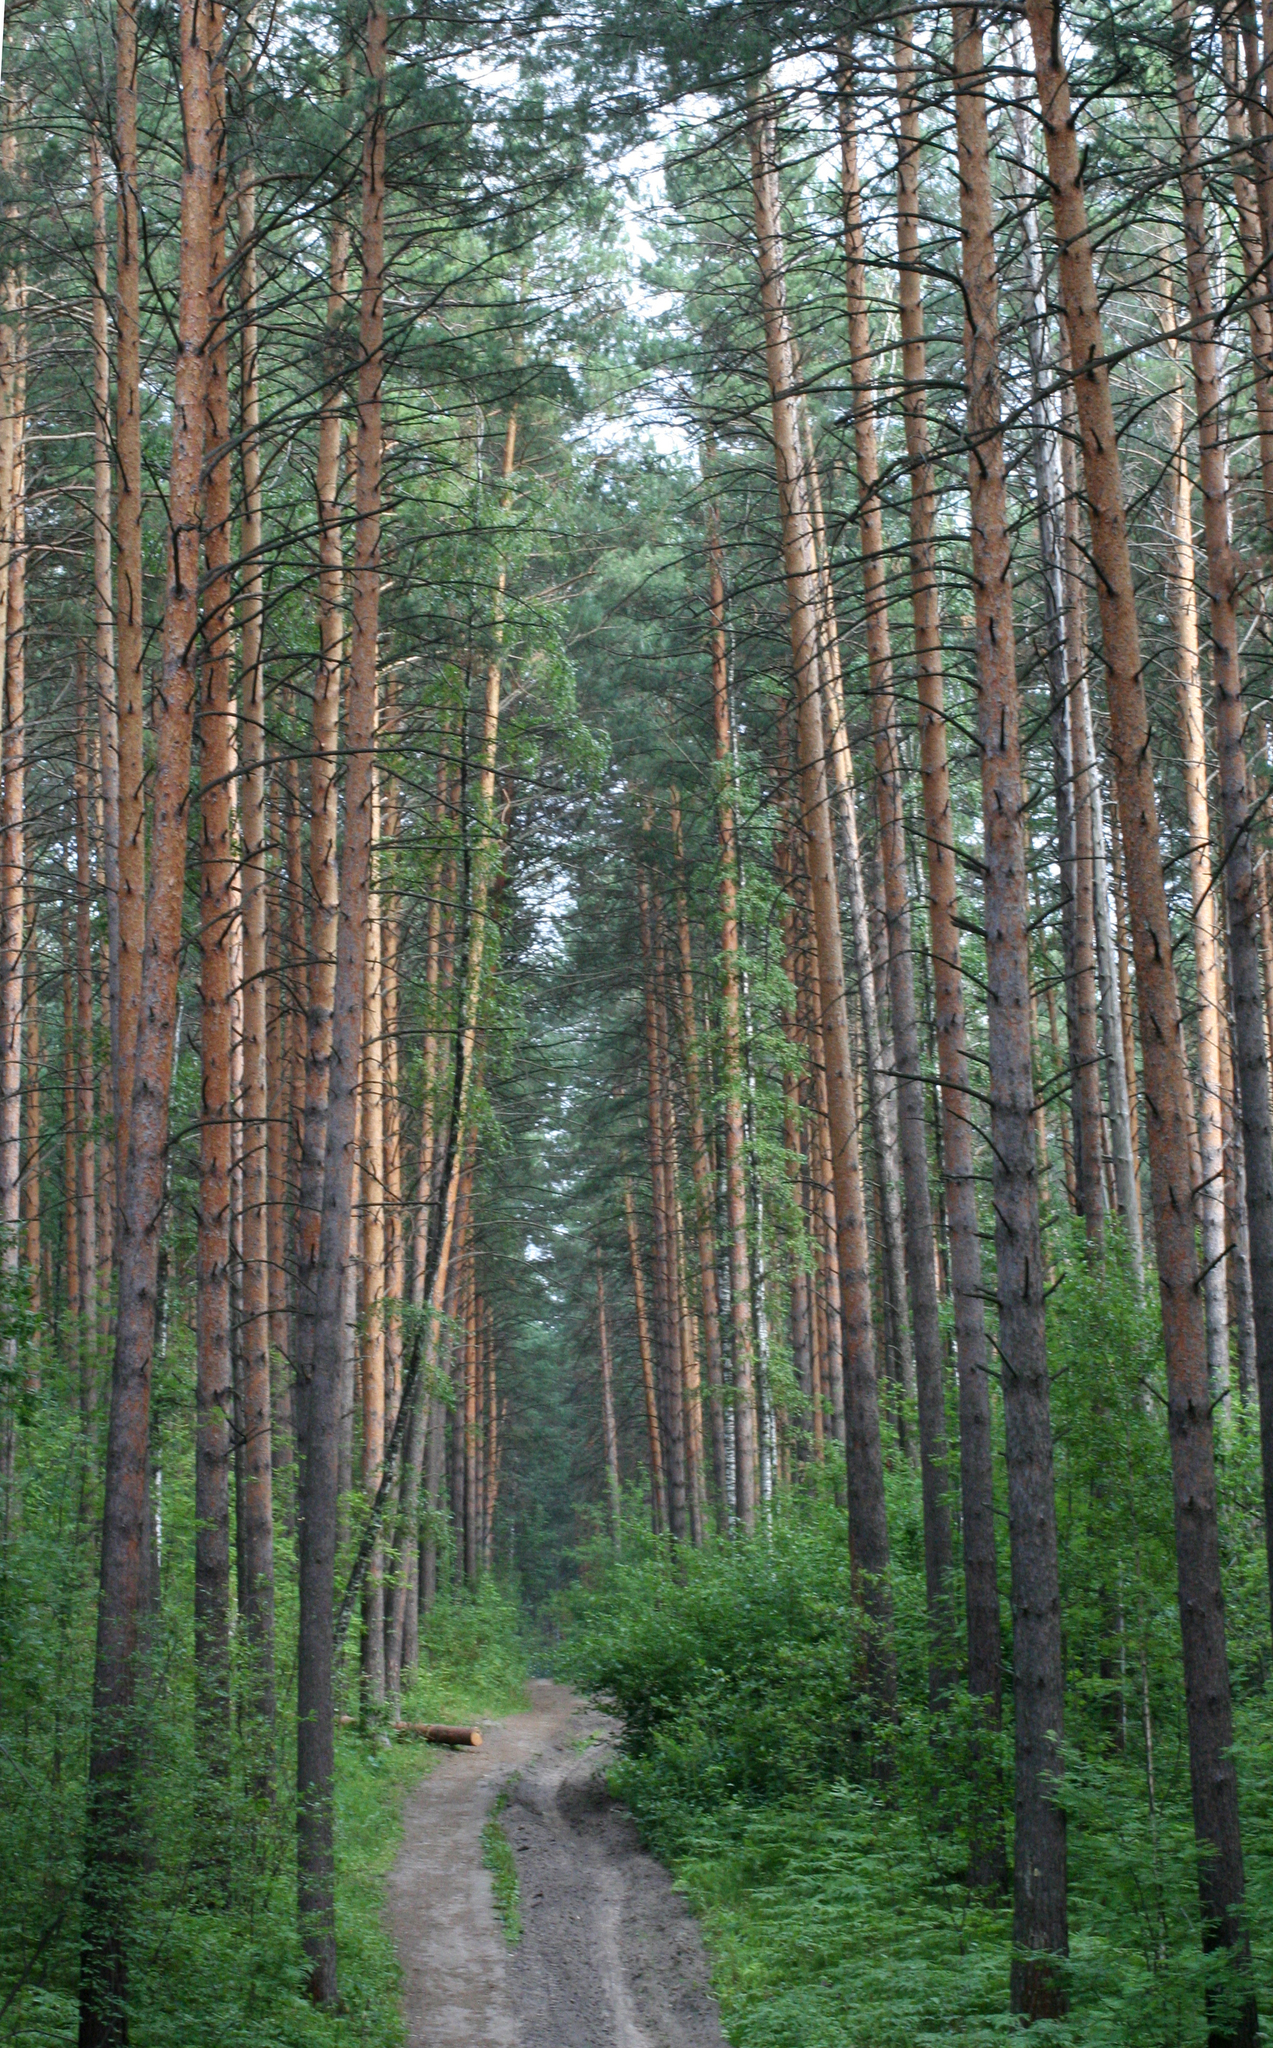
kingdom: Plantae
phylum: Tracheophyta
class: Pinopsida
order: Pinales
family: Pinaceae
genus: Pinus
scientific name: Pinus sylvestris
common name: Scots pine
